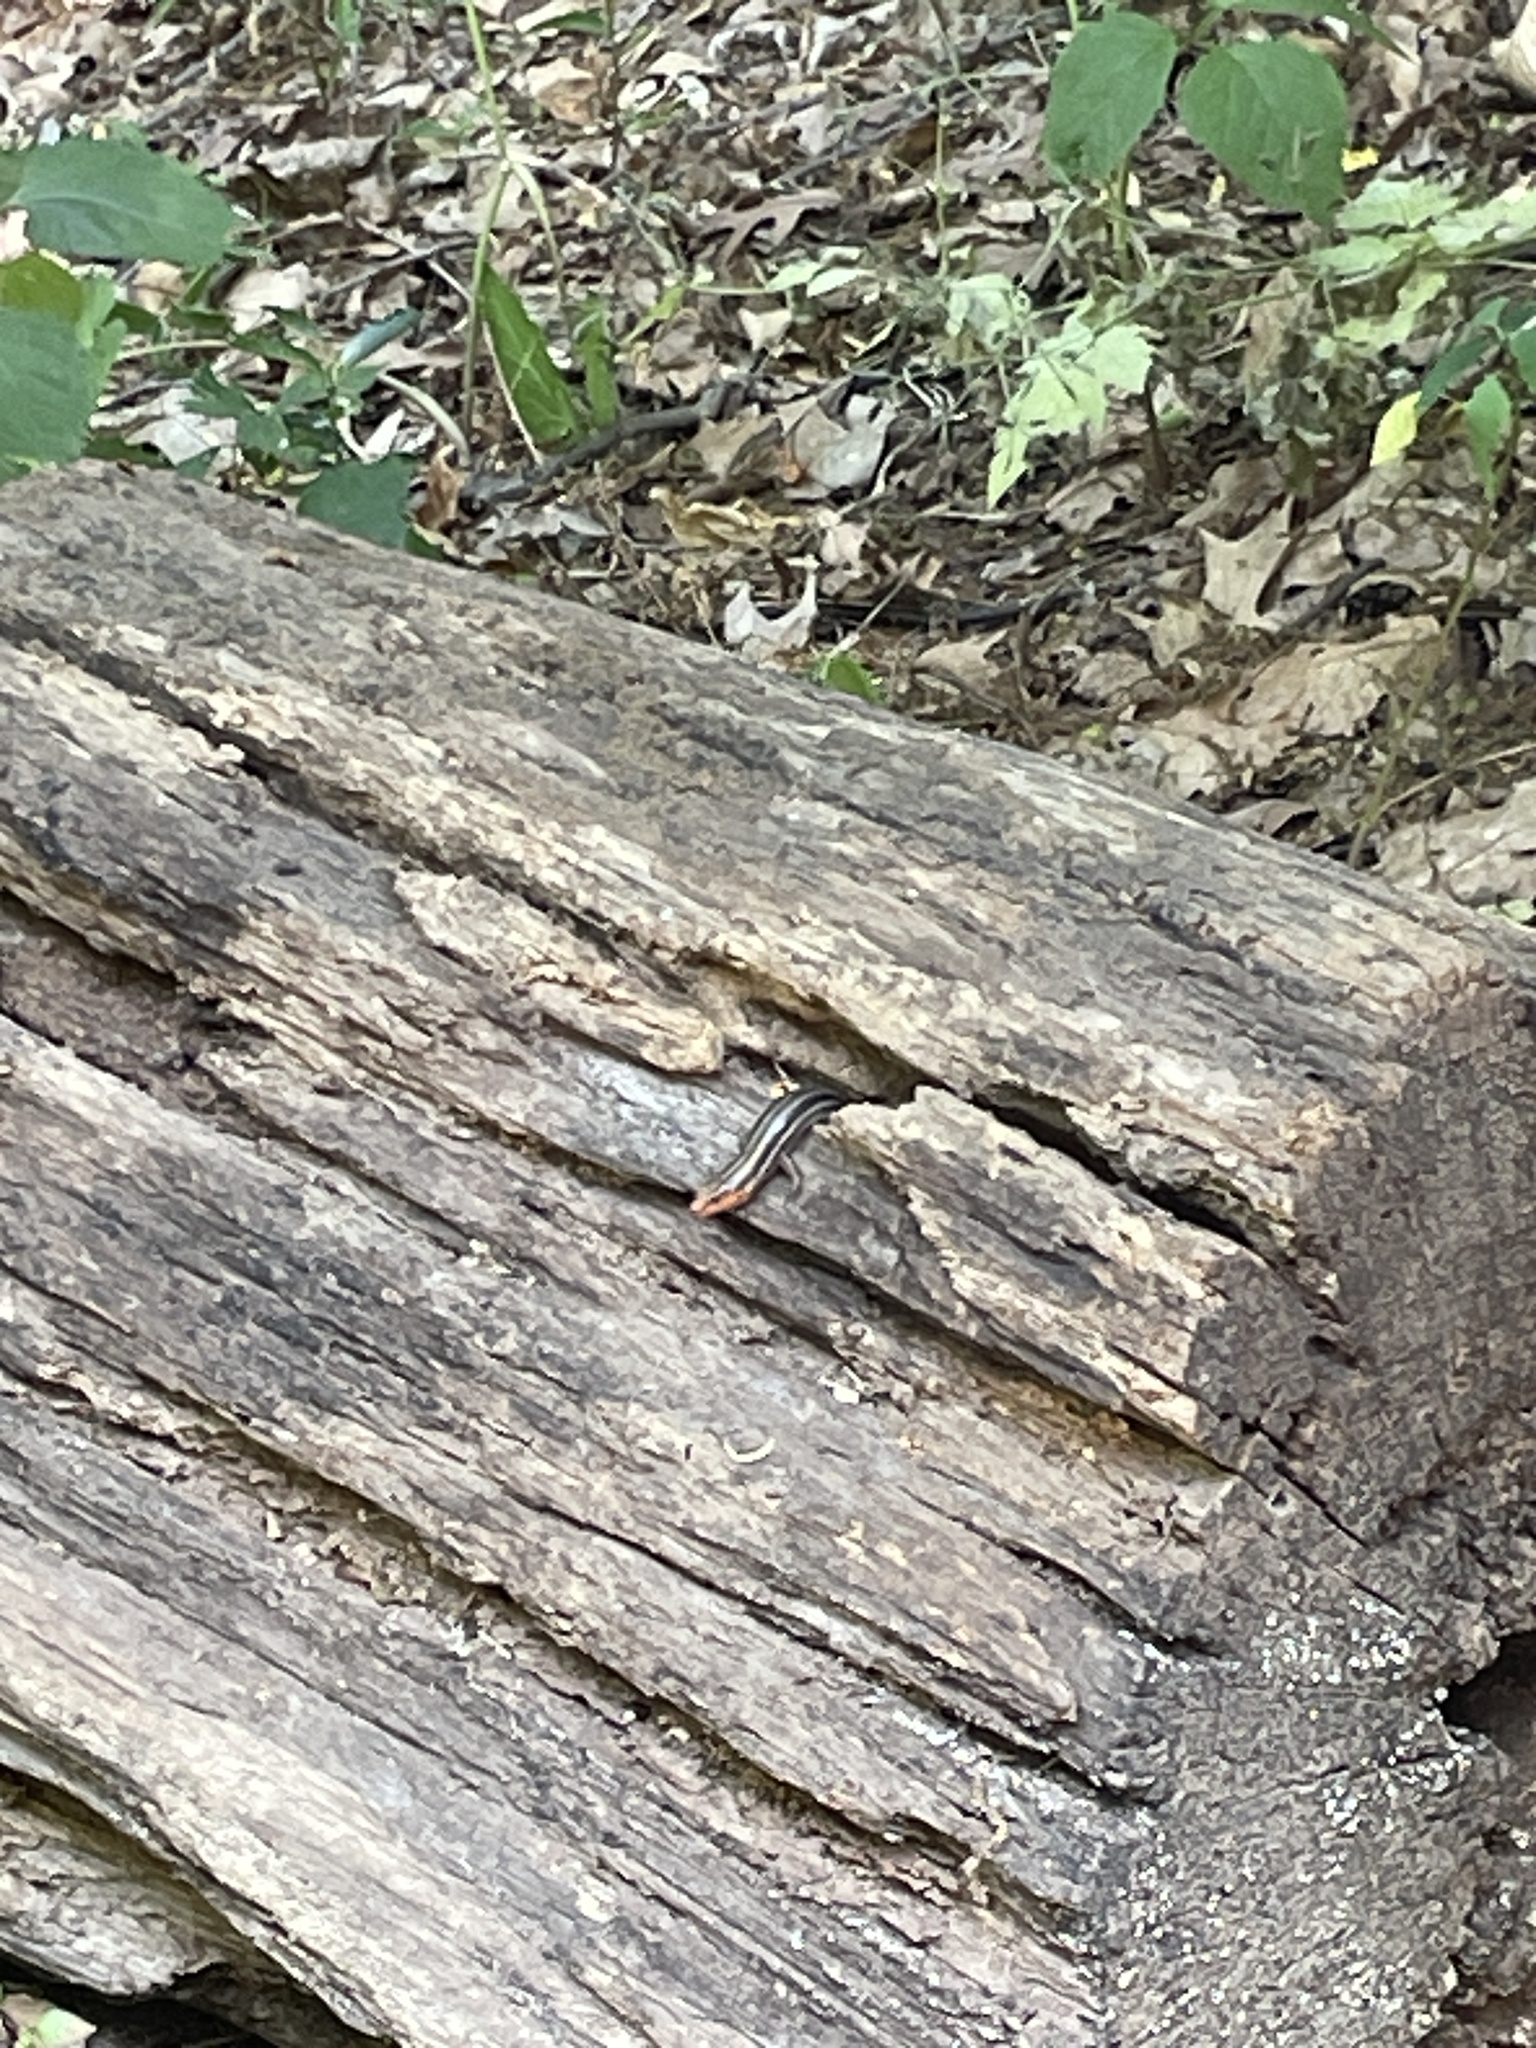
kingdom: Animalia
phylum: Chordata
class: Squamata
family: Scincidae
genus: Plestiodon
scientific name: Plestiodon fasciatus
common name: Five-lined skink
